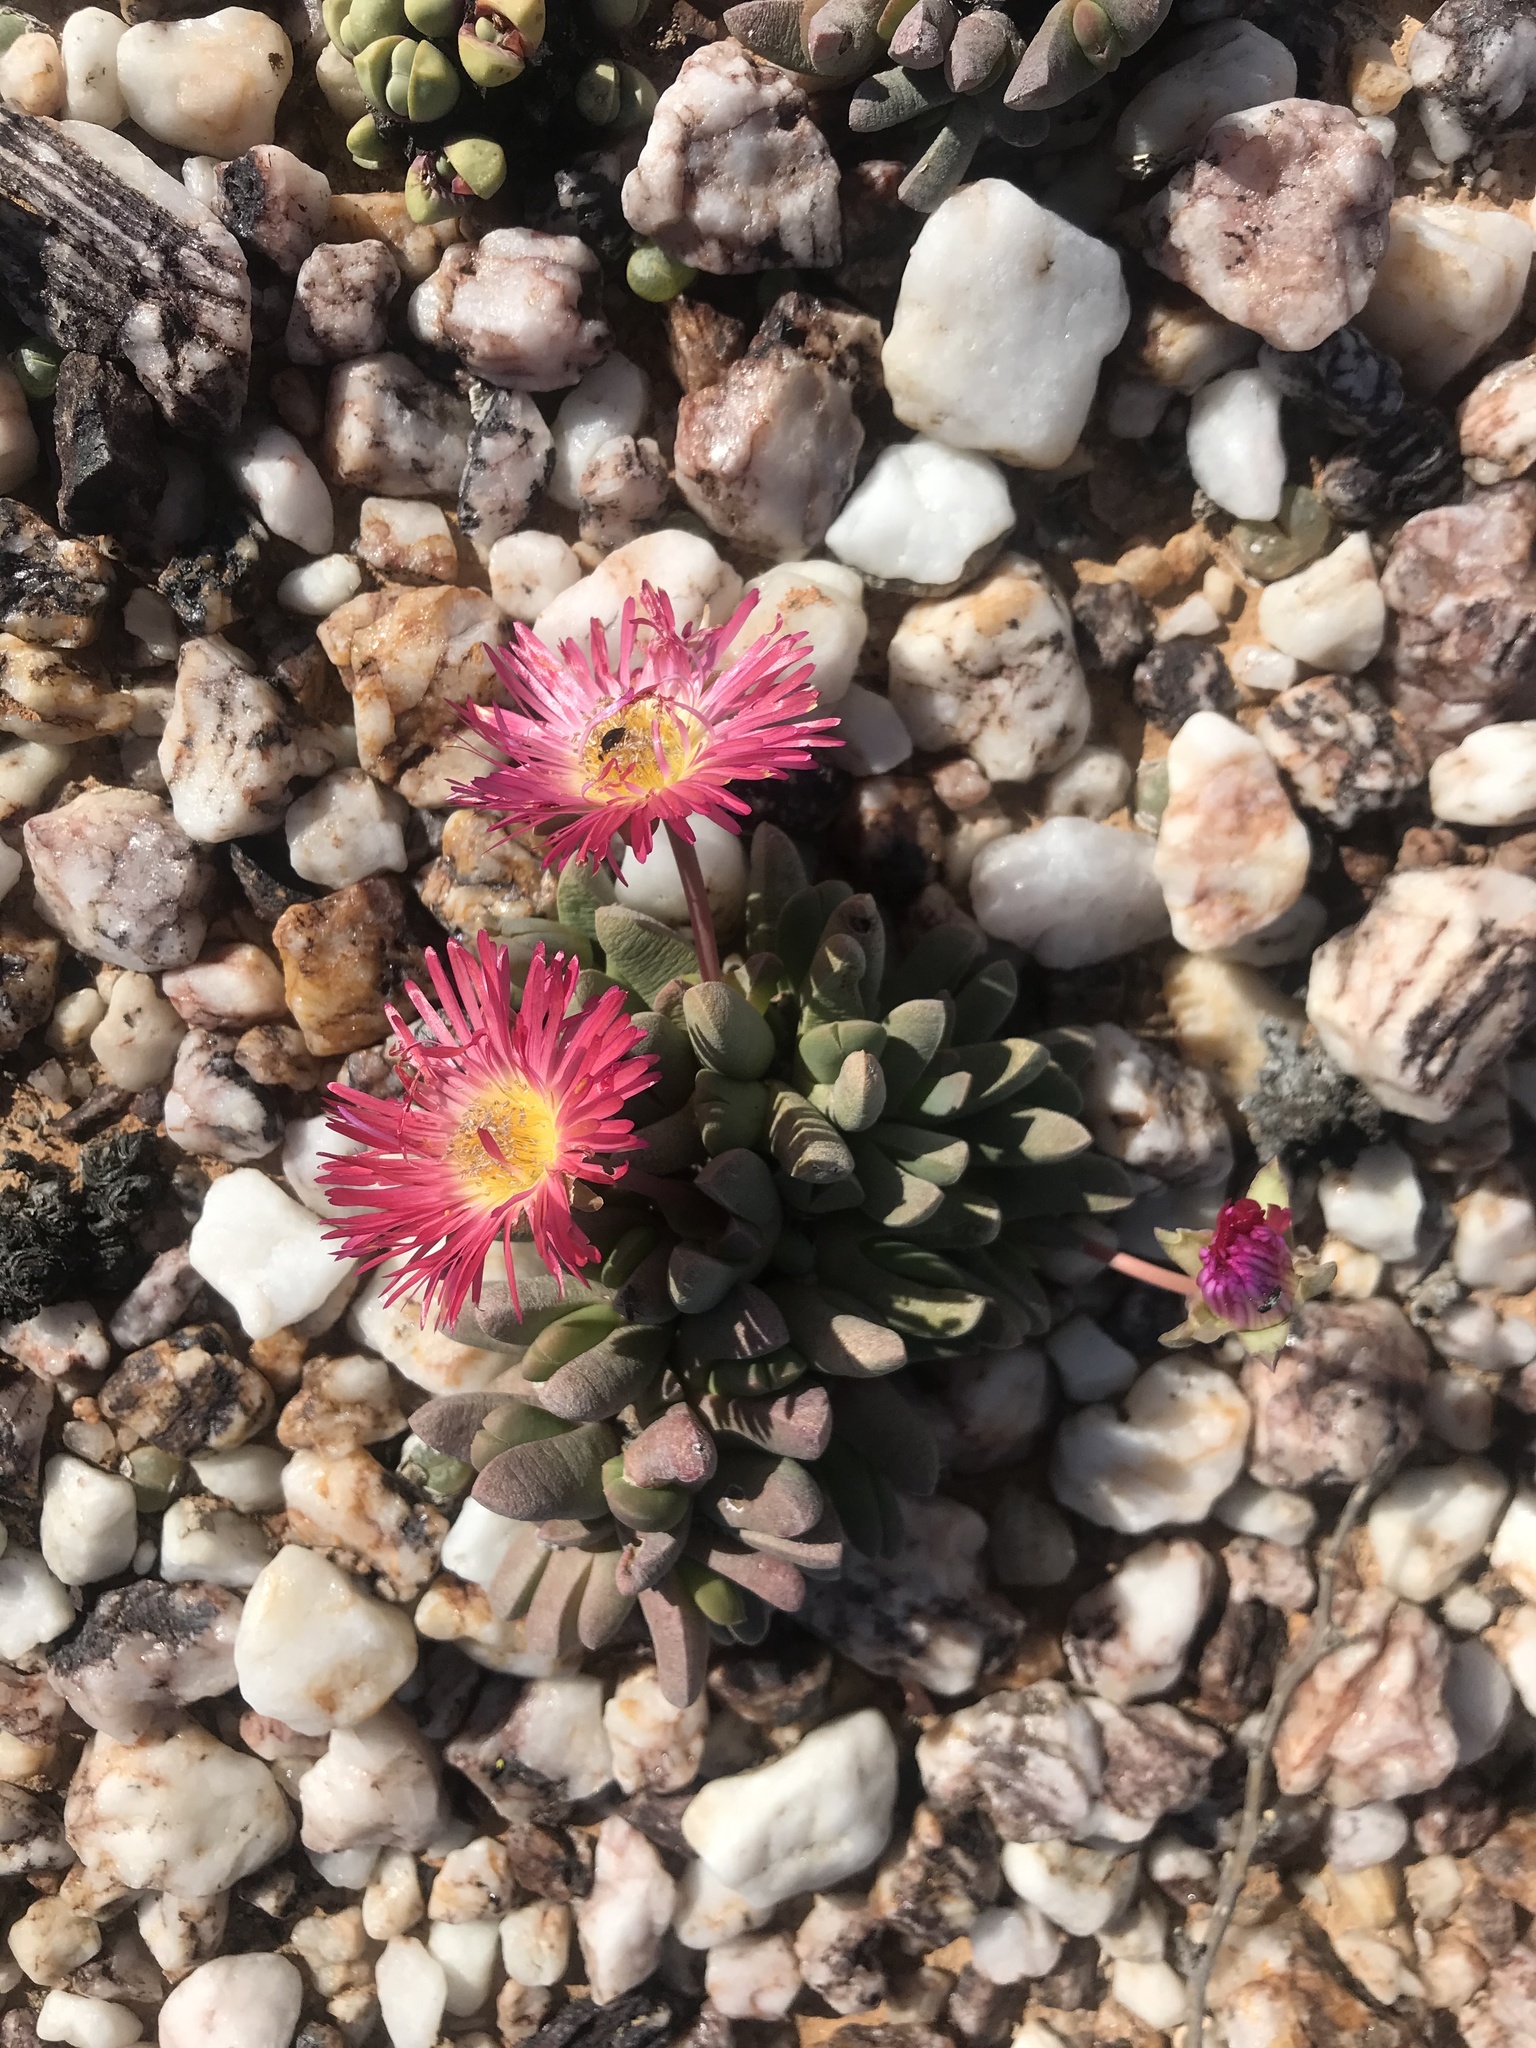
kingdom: Plantae
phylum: Tracheophyta
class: Magnoliopsida
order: Caryophyllales
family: Aizoaceae
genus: Cephalophyllum
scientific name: Cephalophyllum spissum
